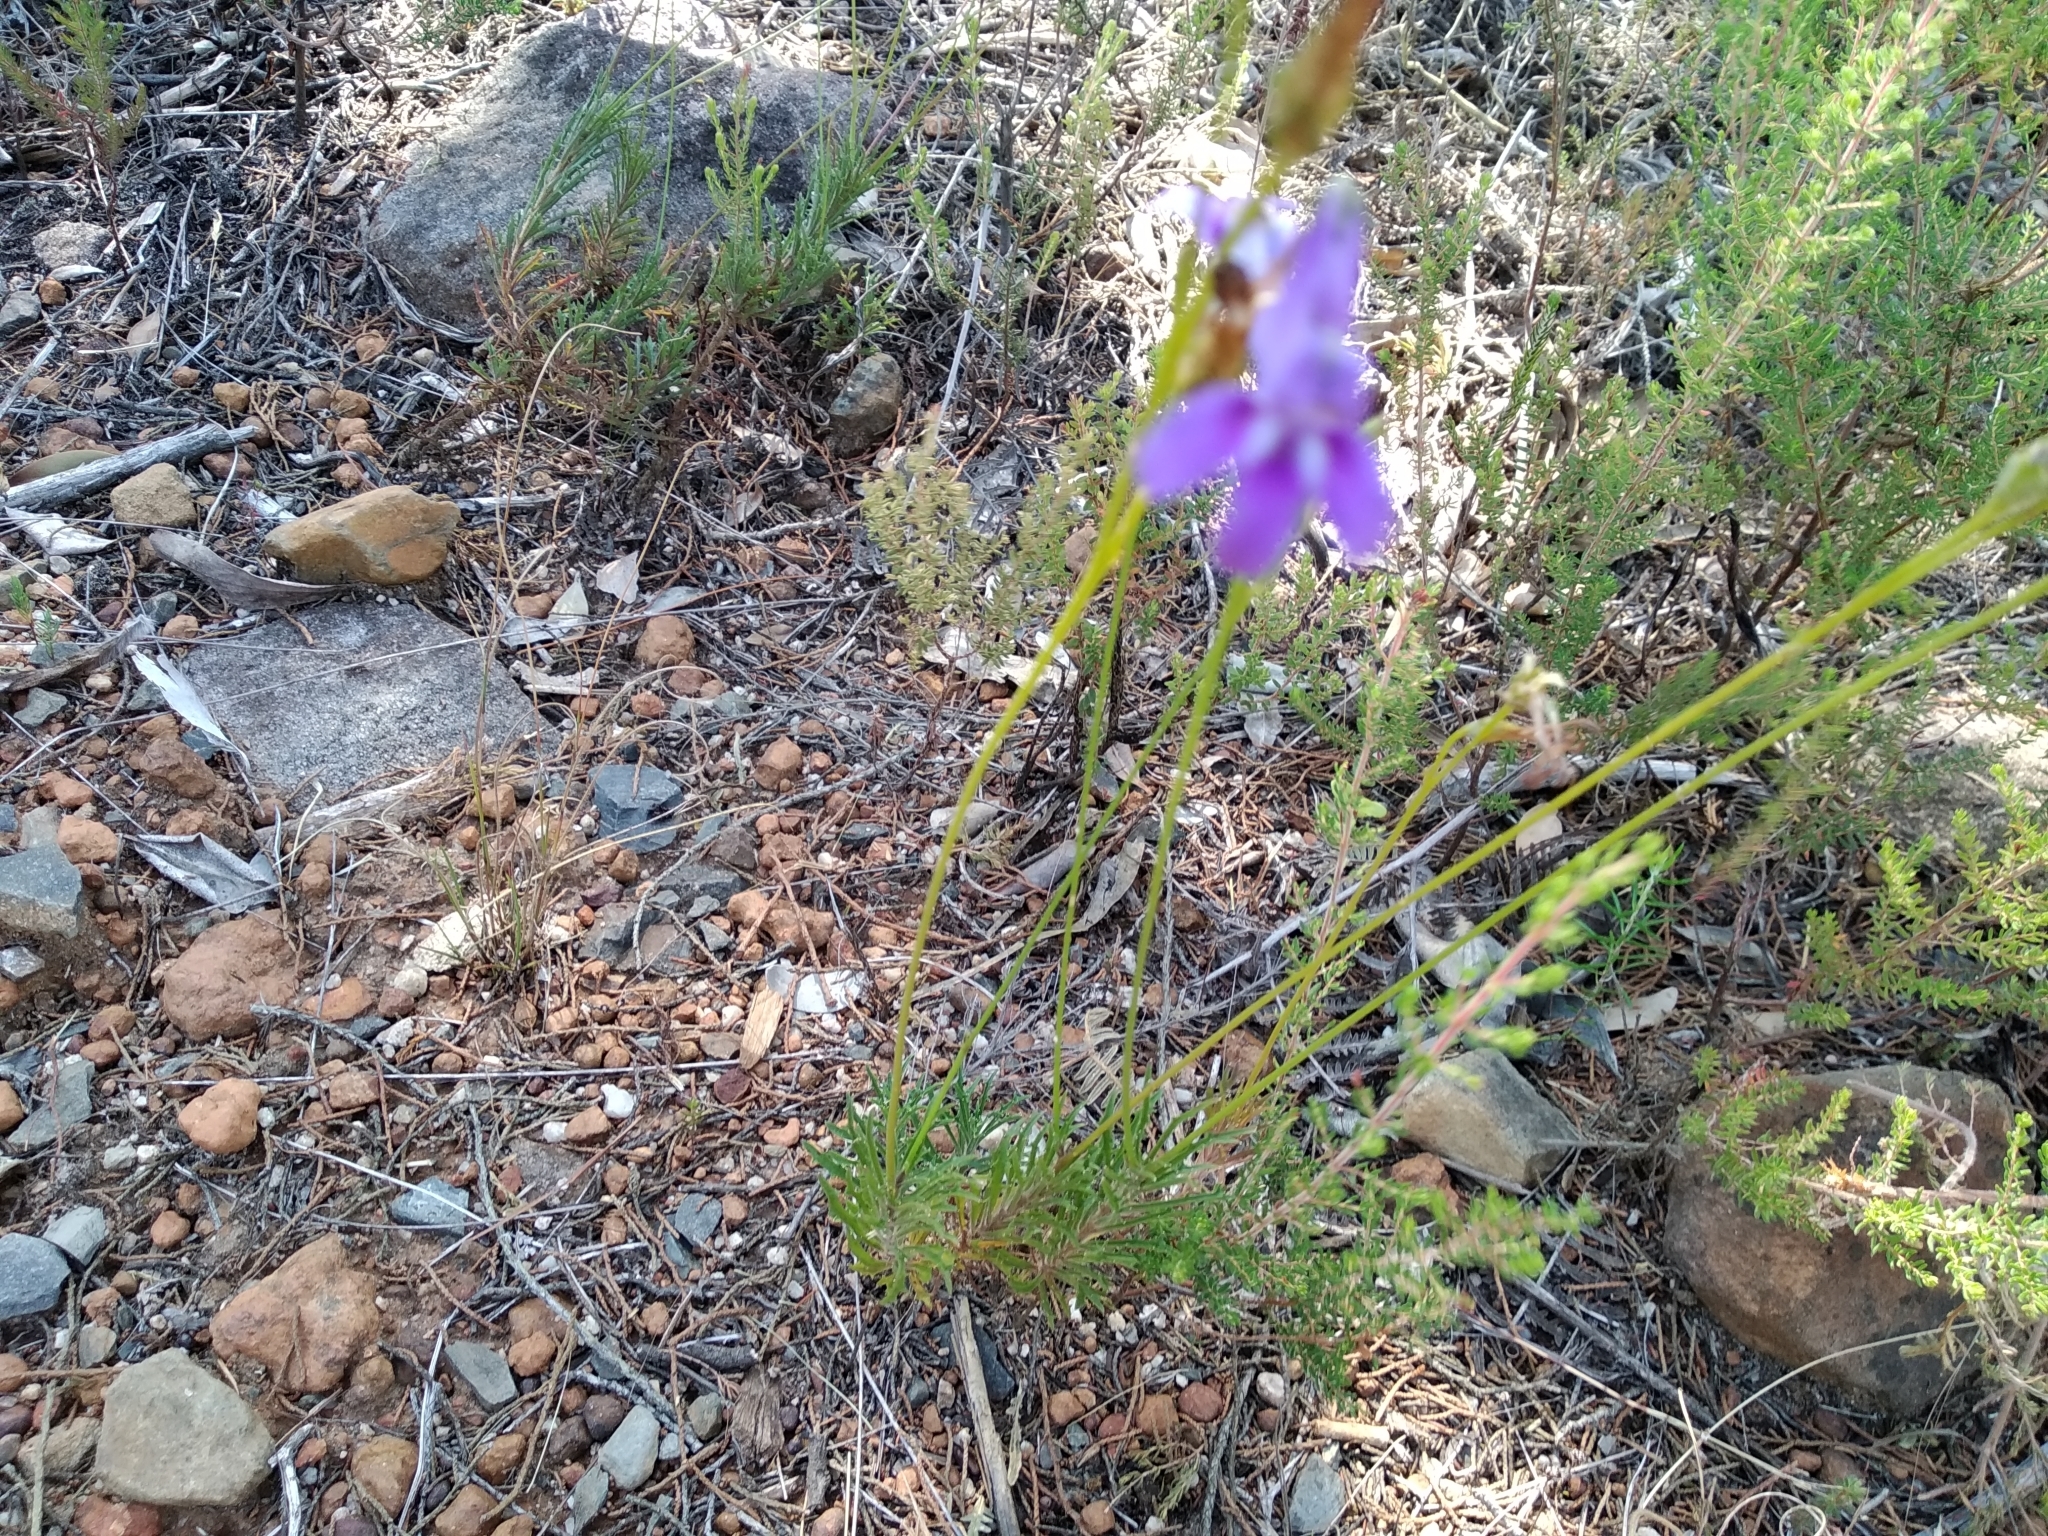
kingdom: Plantae
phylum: Tracheophyta
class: Magnoliopsida
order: Asterales
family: Campanulaceae
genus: Lobelia
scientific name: Lobelia coronopifolia
